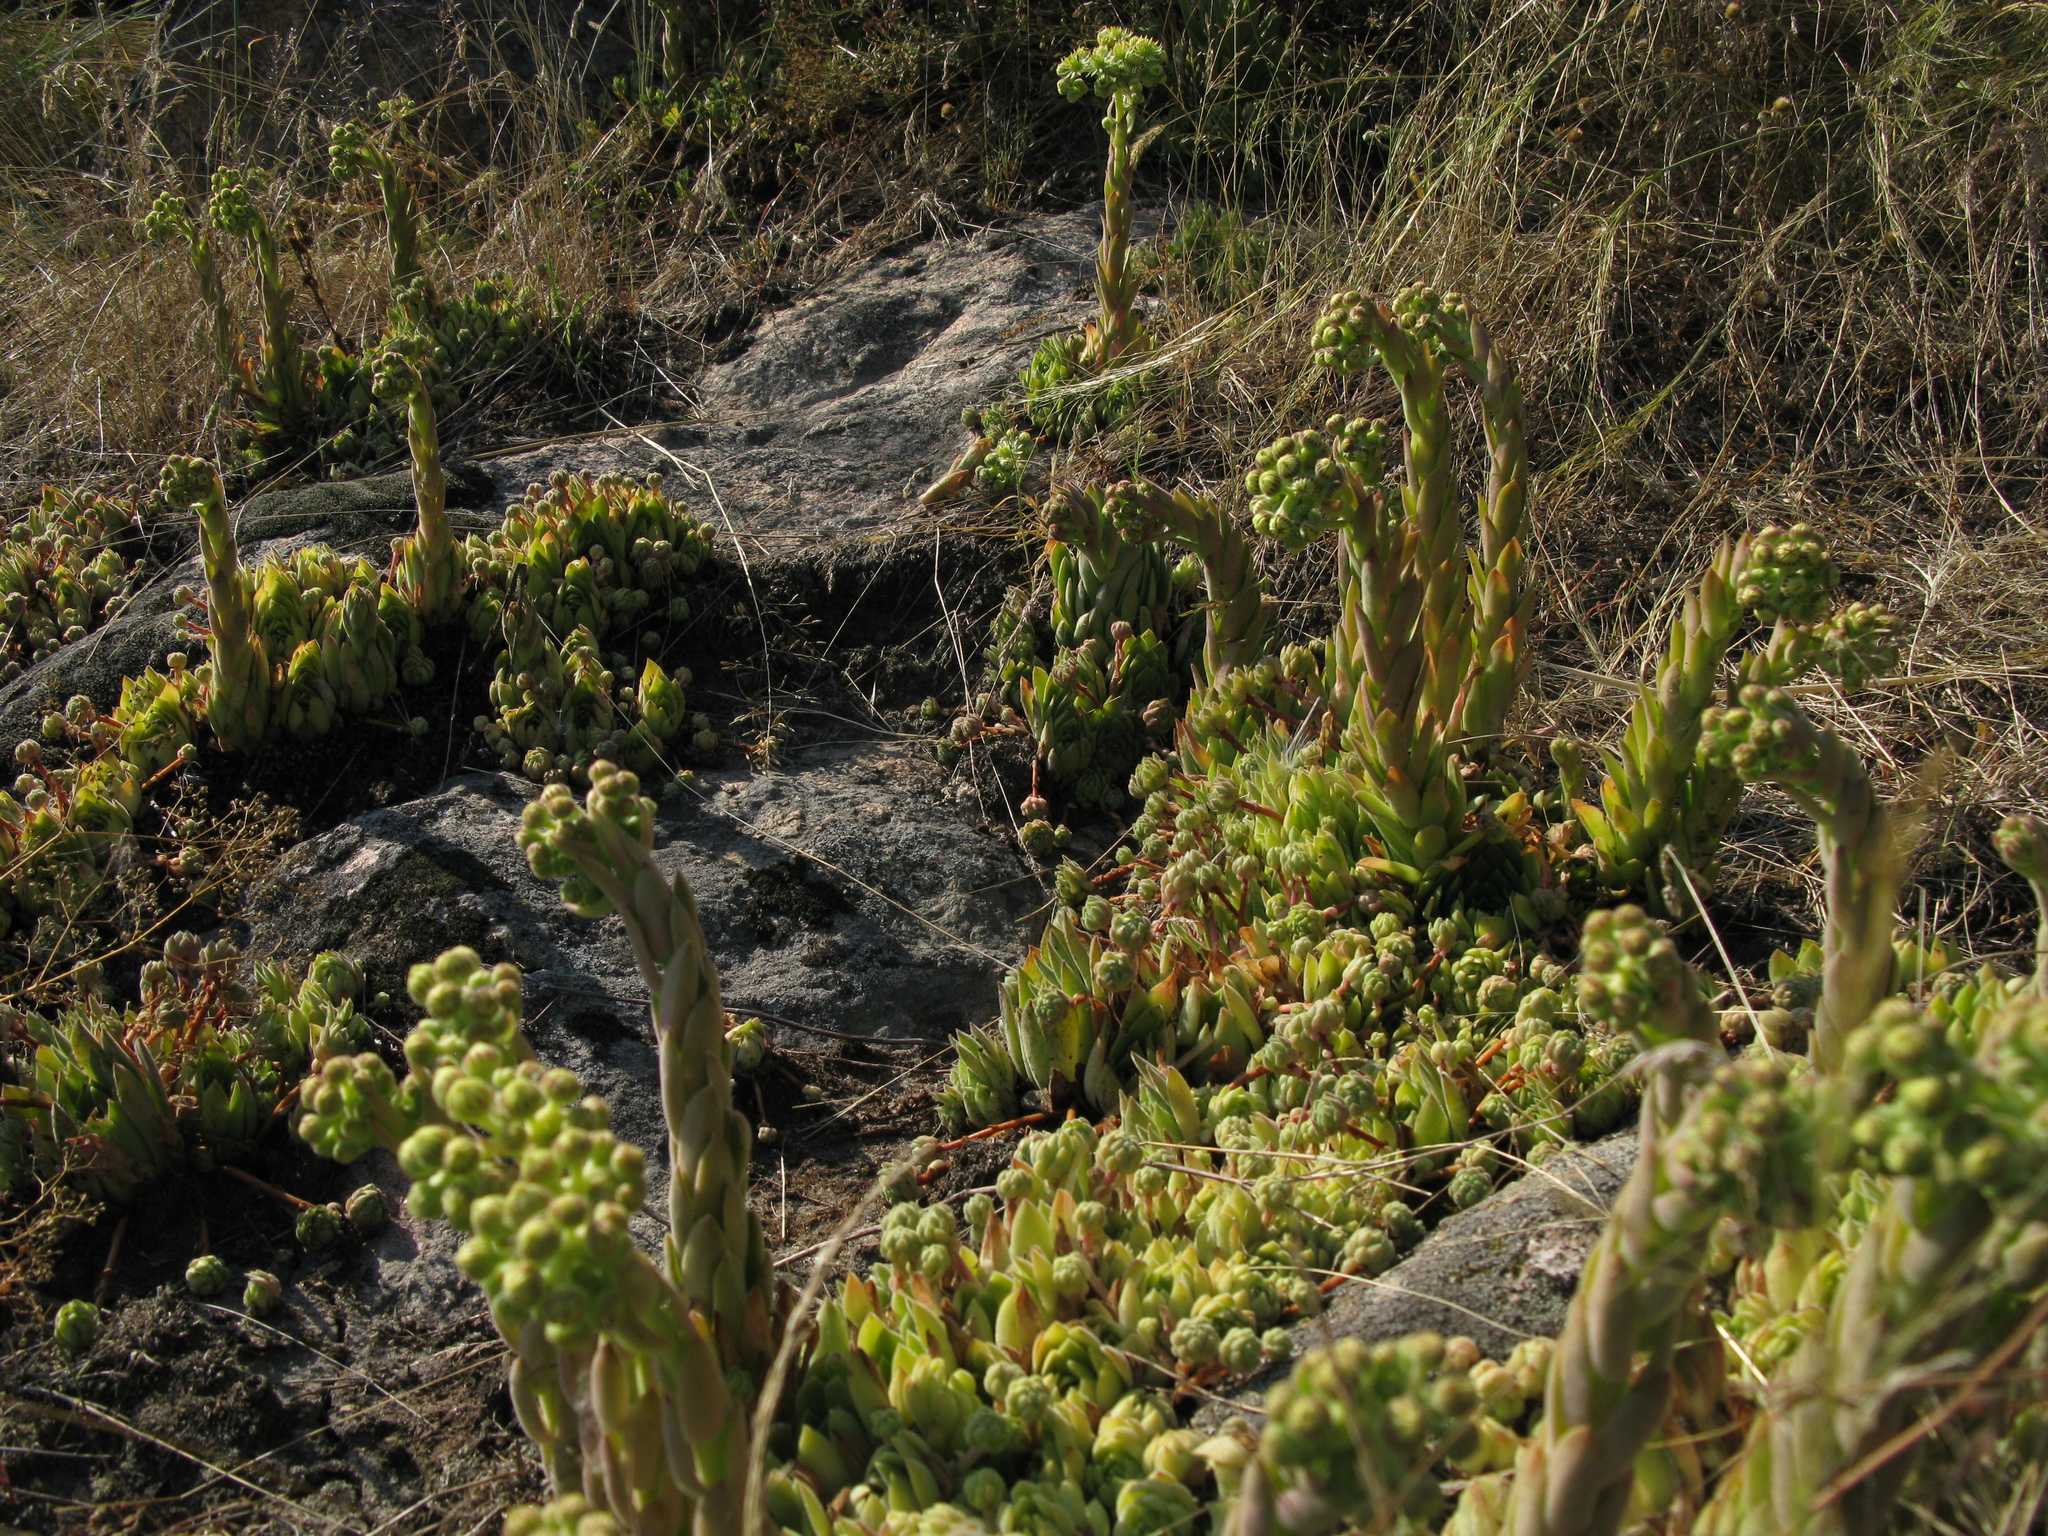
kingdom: Plantae
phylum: Tracheophyta
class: Magnoliopsida
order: Saxifragales
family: Crassulaceae
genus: Sempervivum
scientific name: Sempervivum ruthenicum
